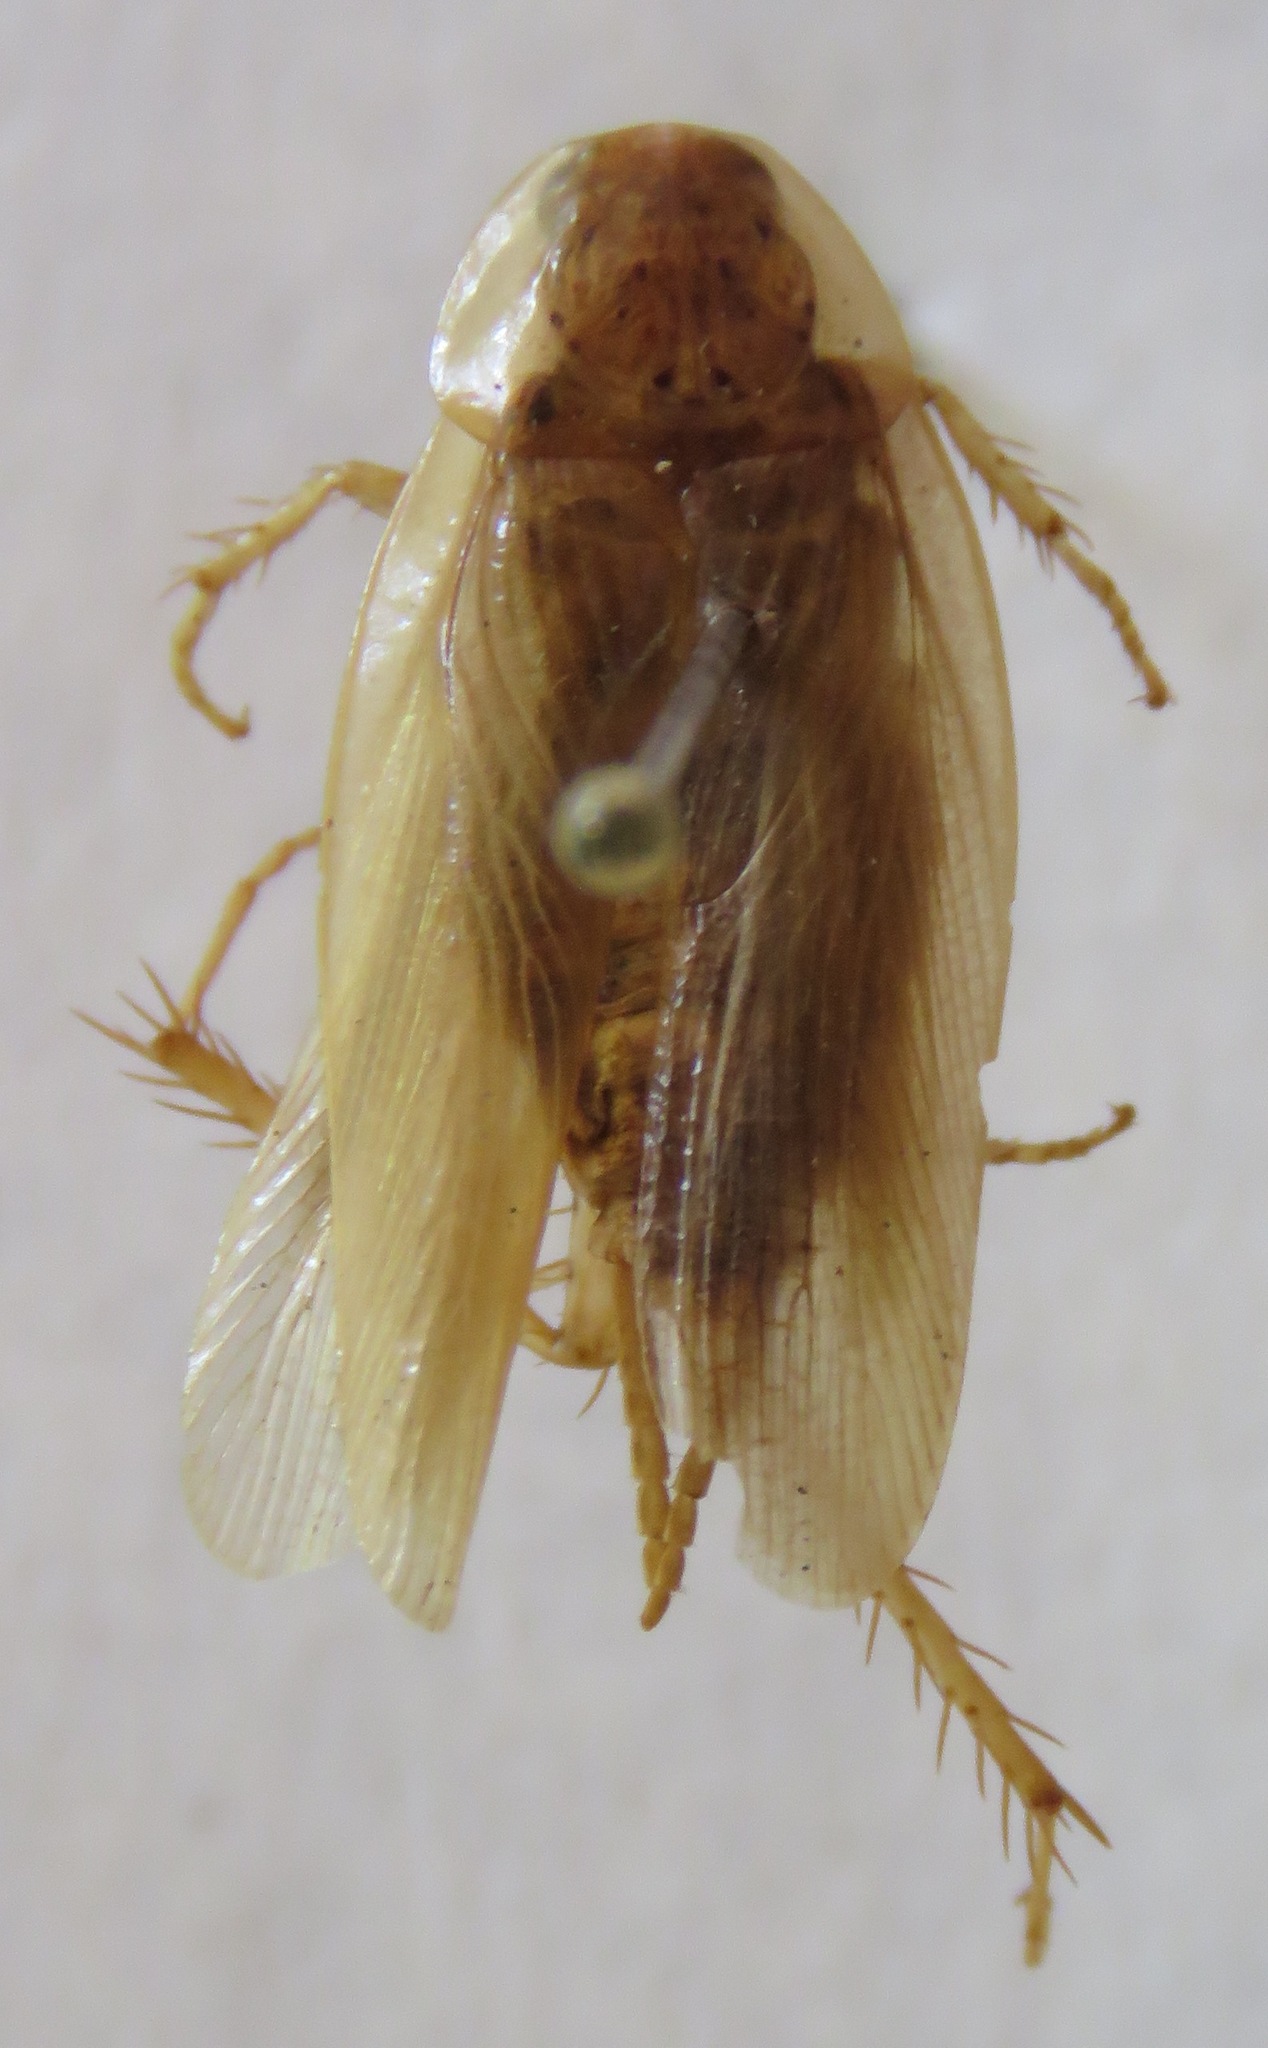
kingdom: Animalia
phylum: Arthropoda
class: Insecta
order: Blattodea
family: Ectobiidae
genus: Nahublattella
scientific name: Nahublattella fraterna
